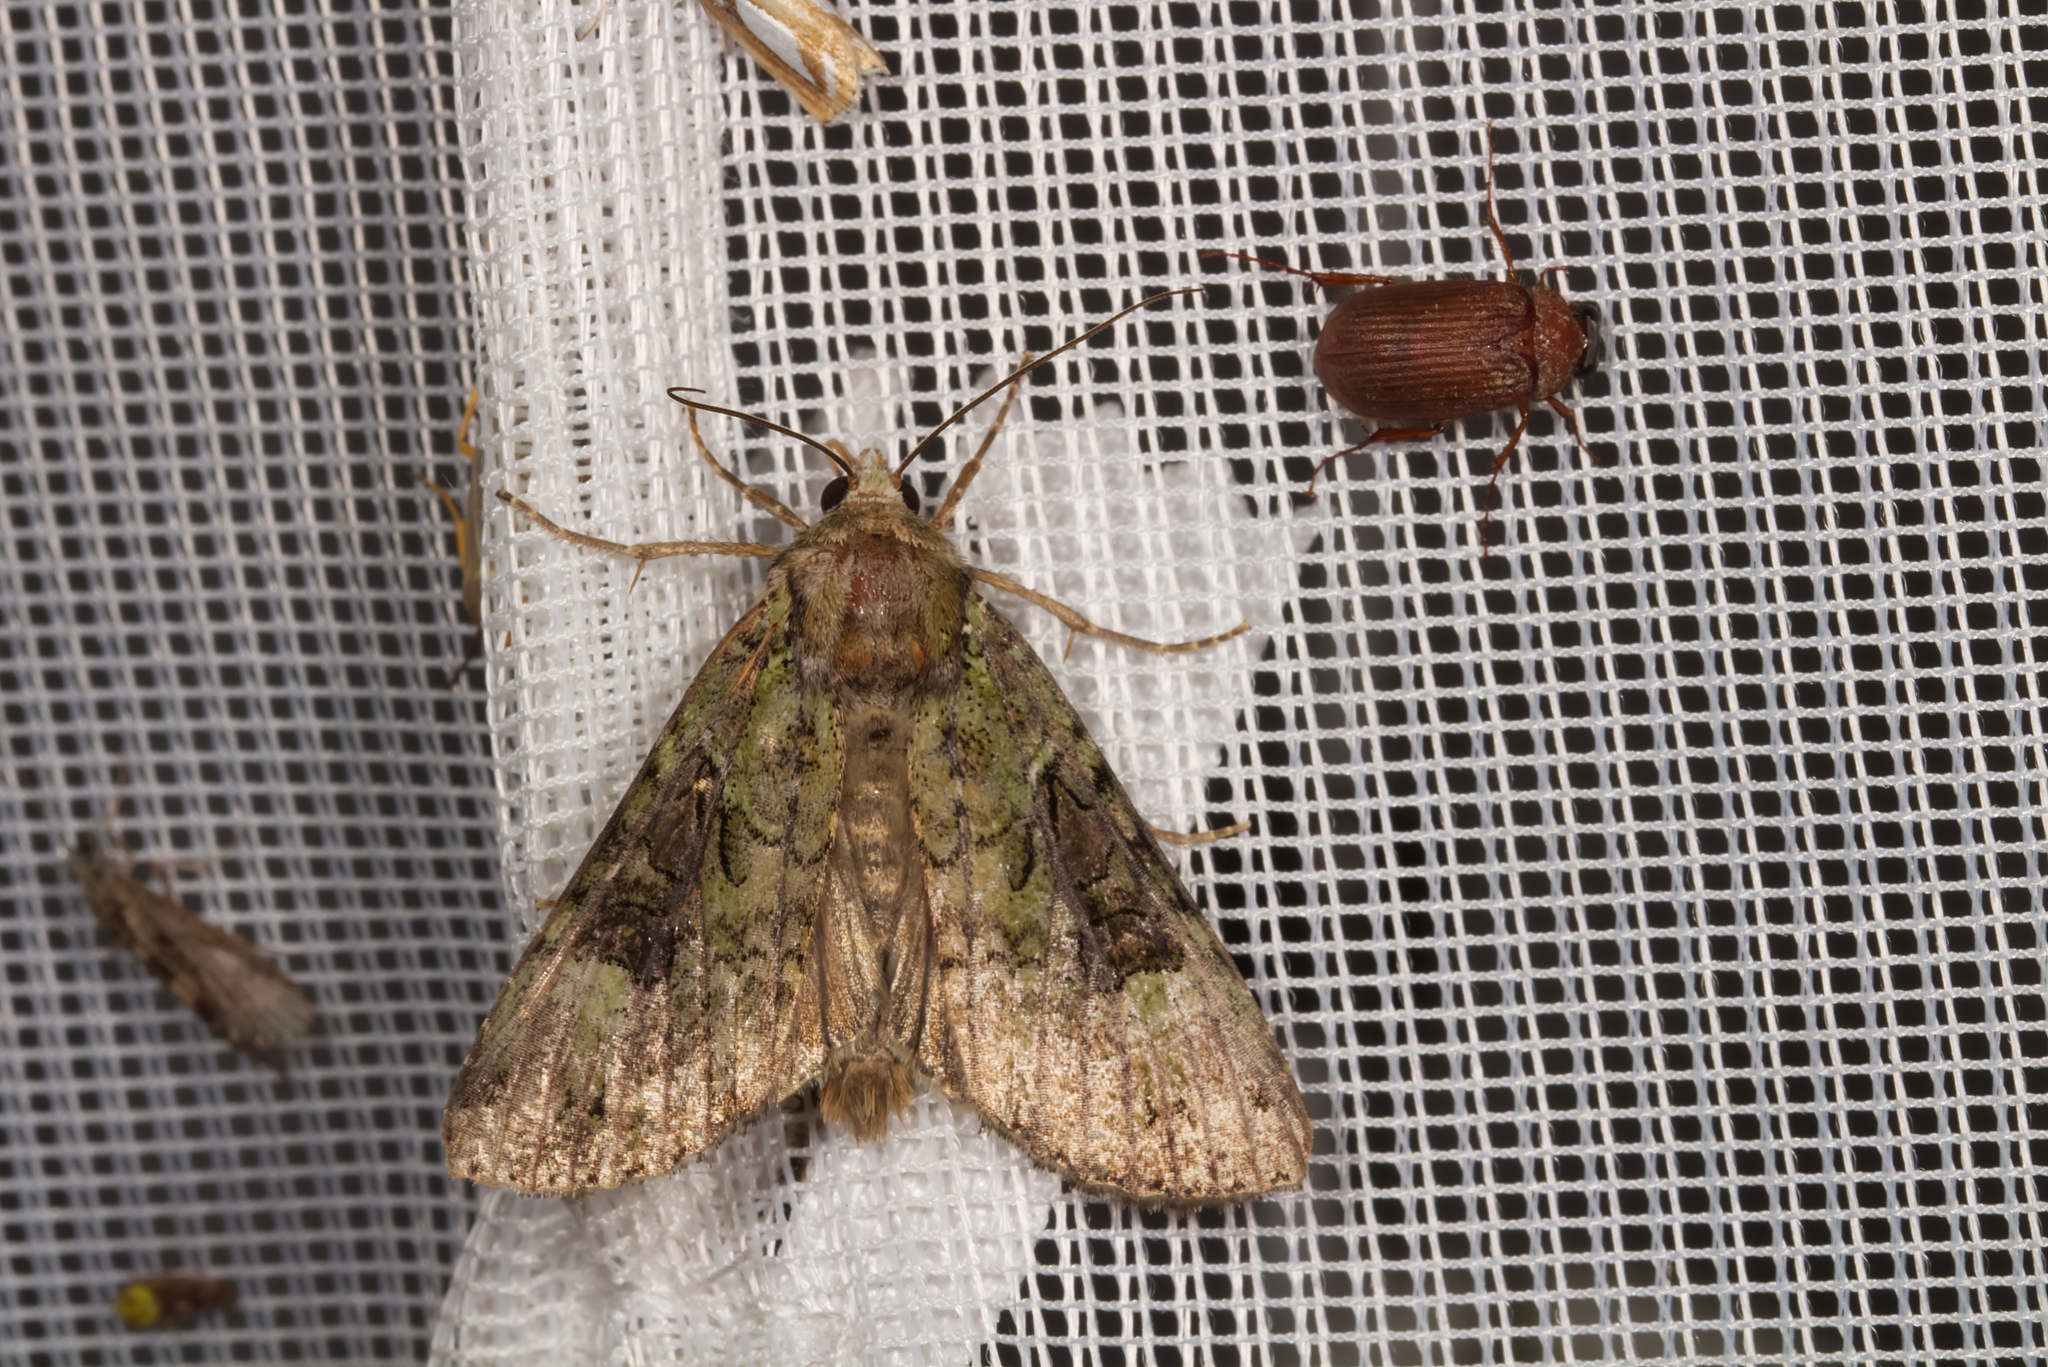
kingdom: Animalia
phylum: Arthropoda
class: Insecta
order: Lepidoptera
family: Noctuidae
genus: Anaplectoides
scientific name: Anaplectoides prasina
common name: Green arches
